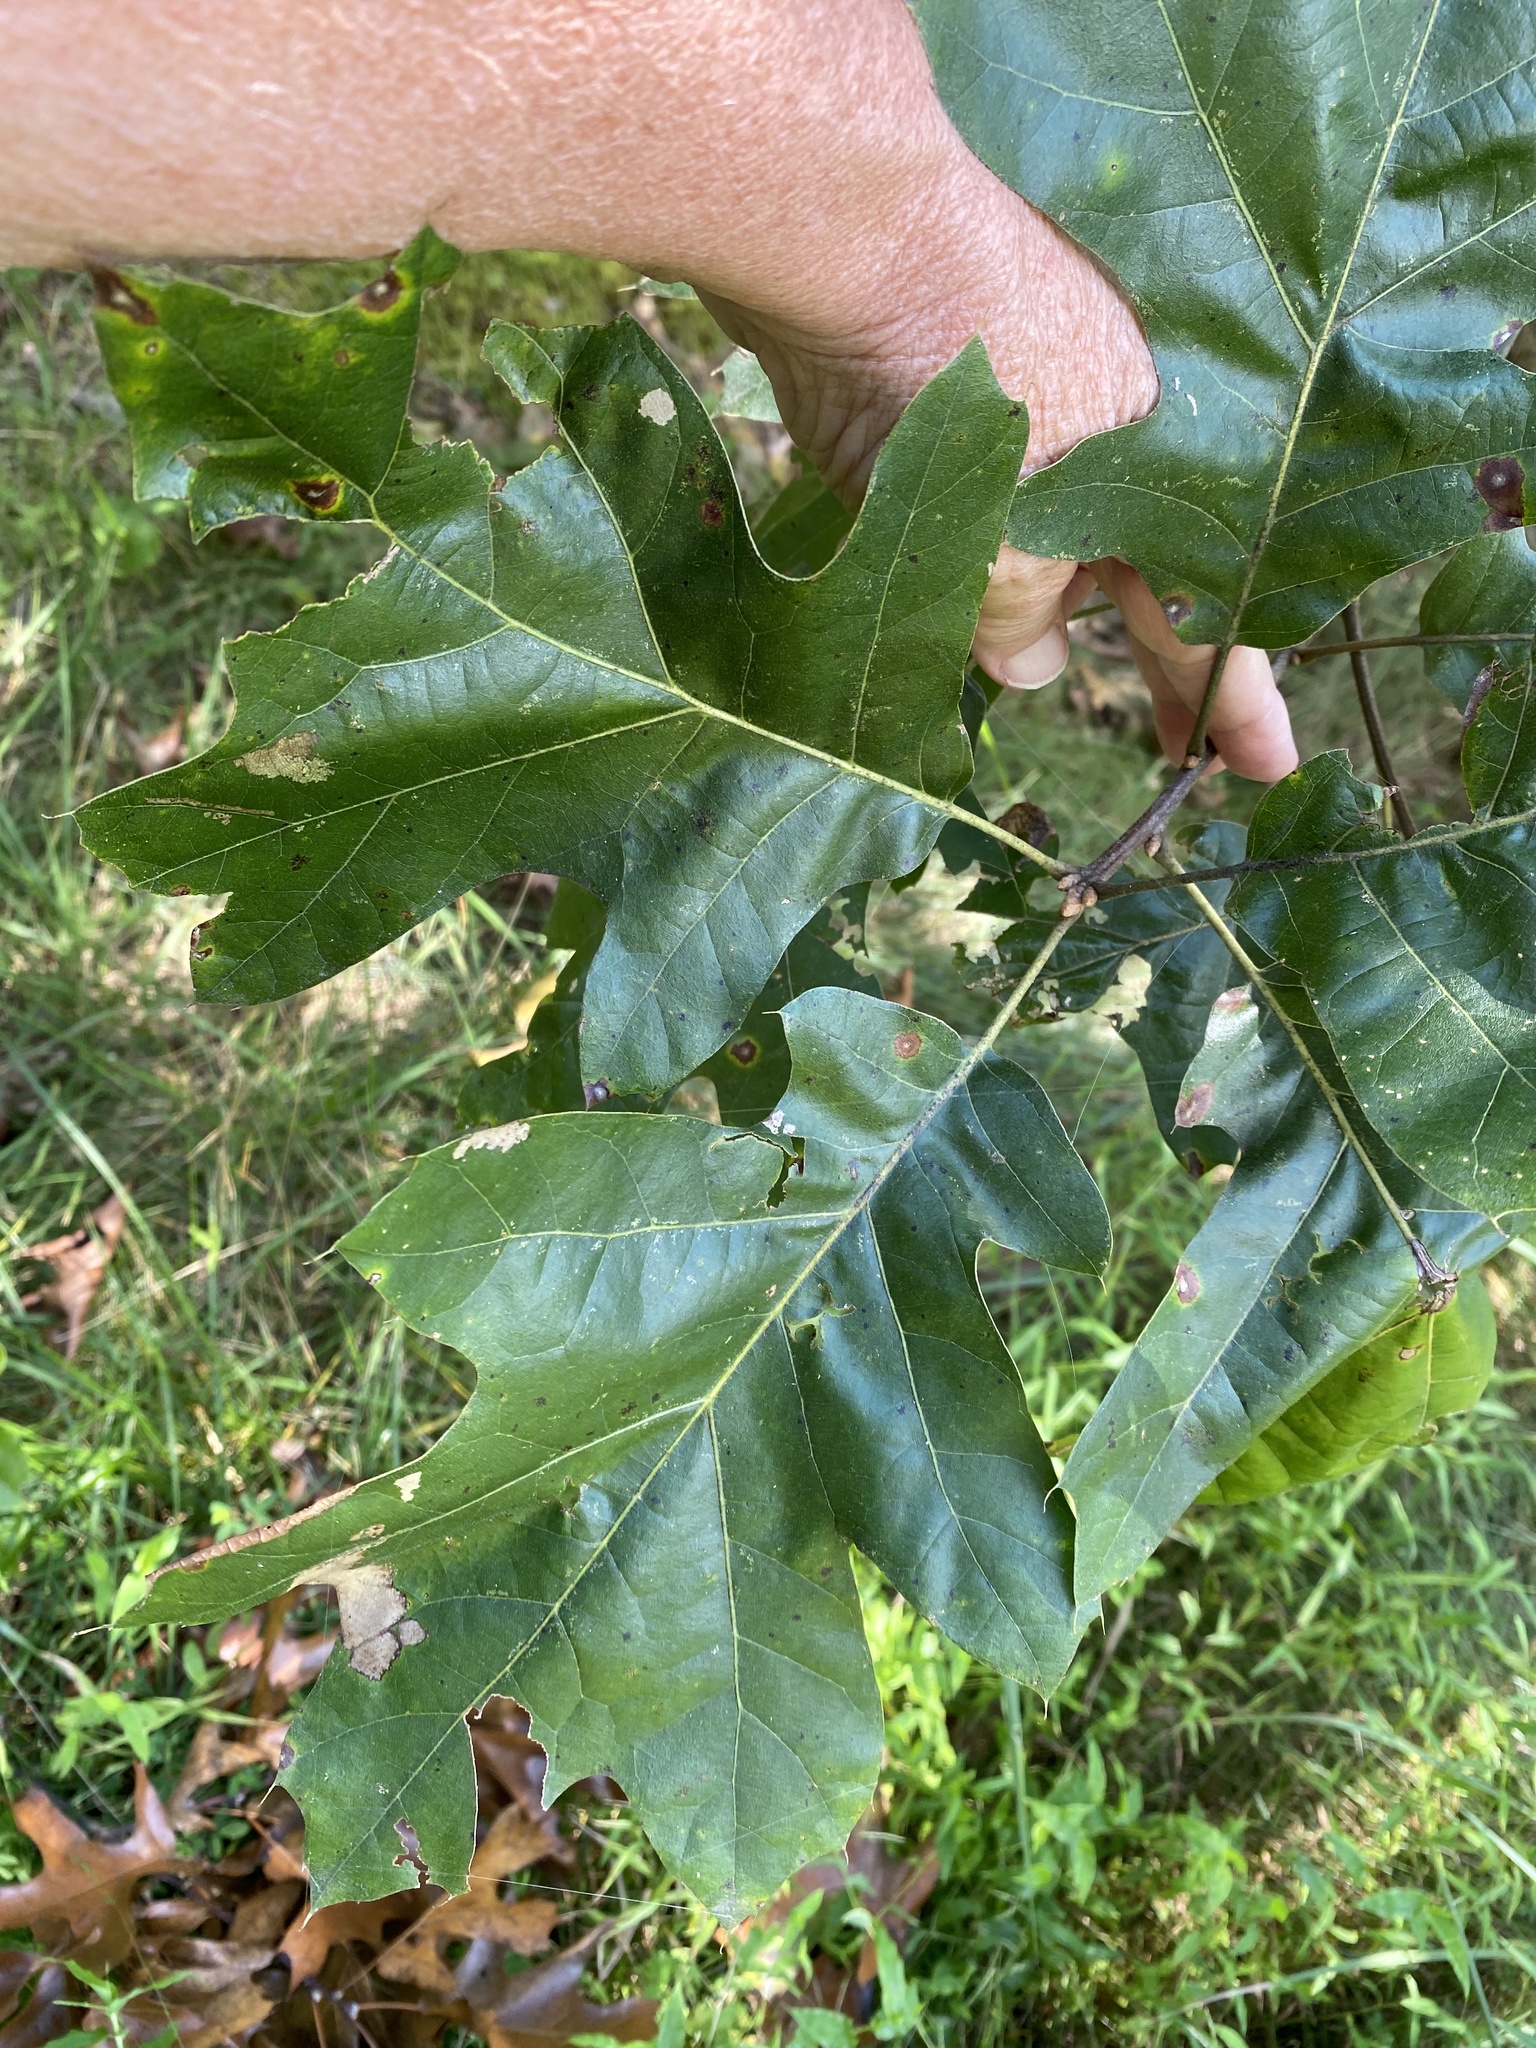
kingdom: Plantae
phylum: Tracheophyta
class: Magnoliopsida
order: Fagales
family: Fagaceae
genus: Quercus
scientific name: Quercus velutina
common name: Black oak
